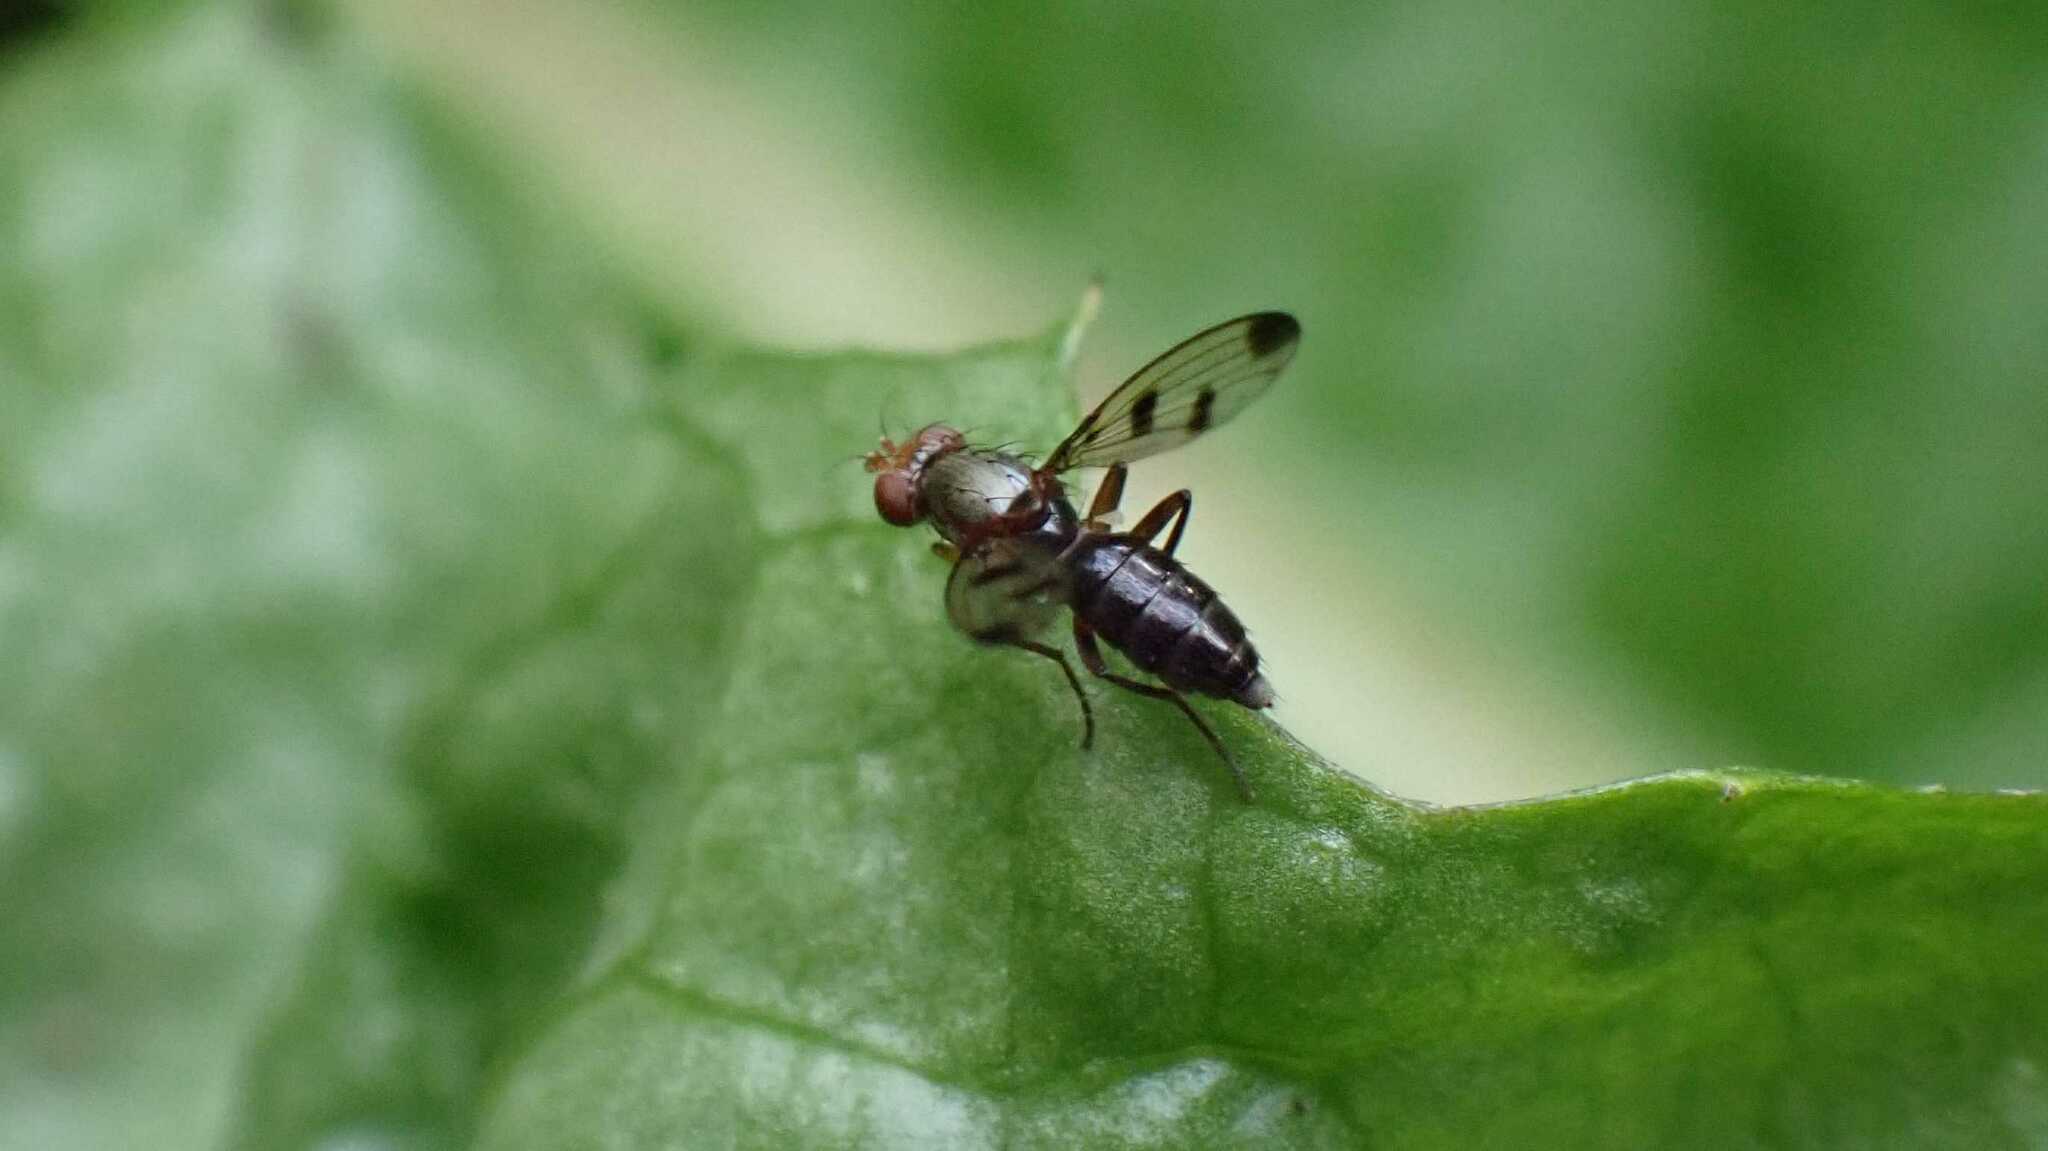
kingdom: Animalia
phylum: Arthropoda
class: Insecta
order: Diptera
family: Opomyzidae
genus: Geomyza
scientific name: Geomyza tripunctata
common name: Cereal fly
